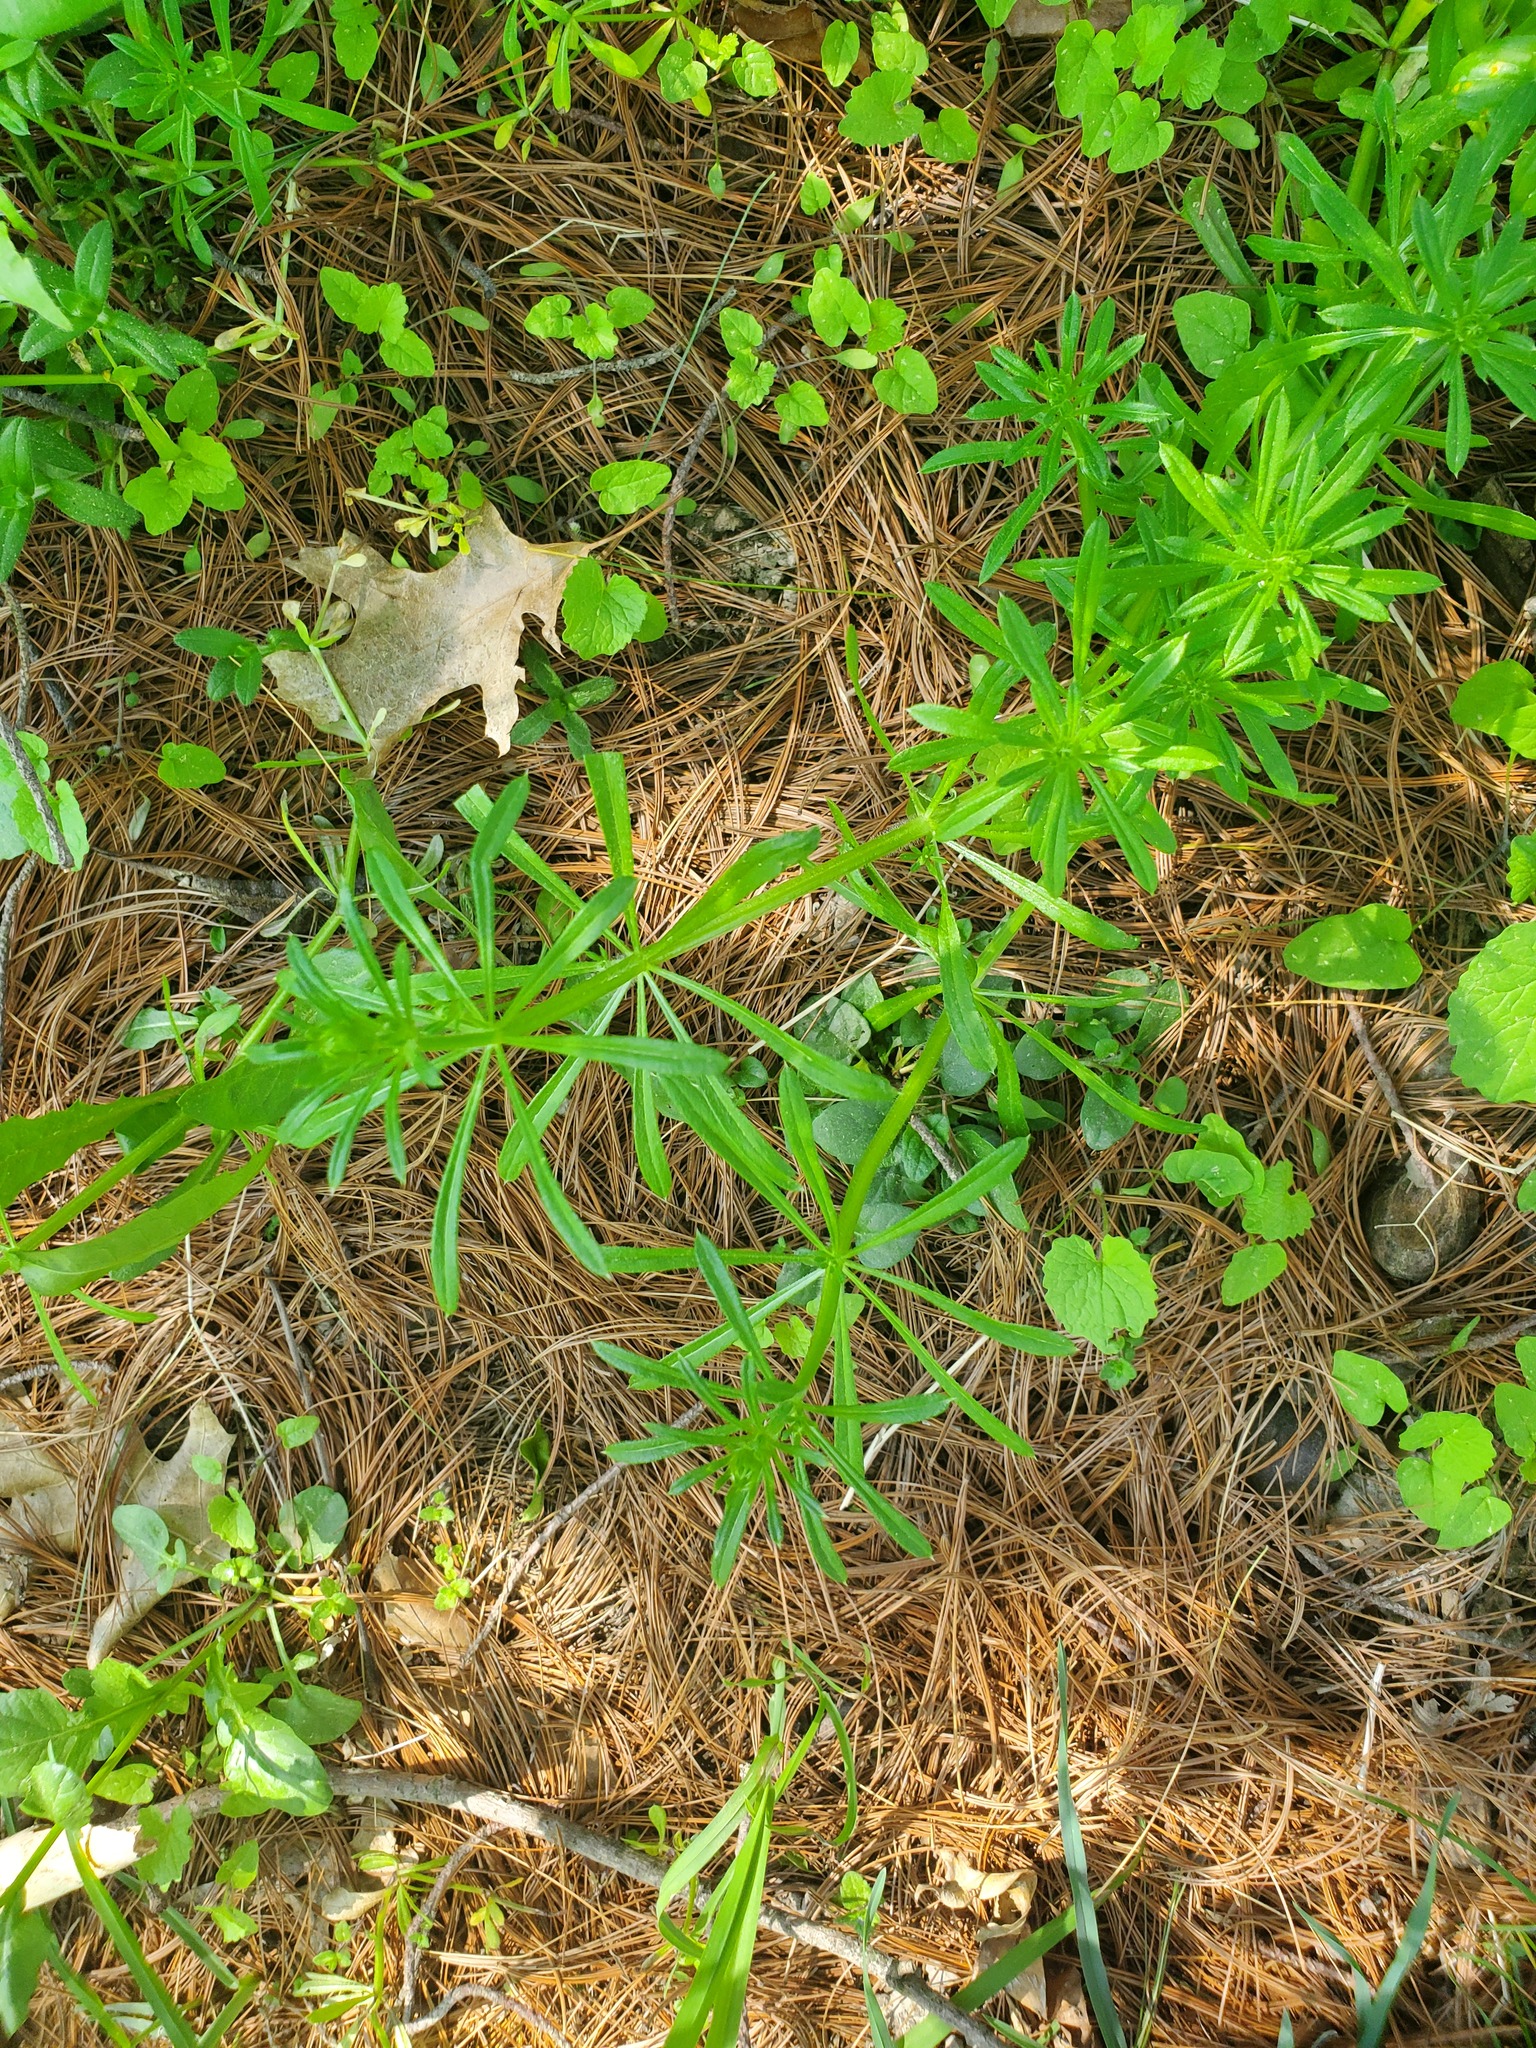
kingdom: Plantae
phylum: Tracheophyta
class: Magnoliopsida
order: Gentianales
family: Rubiaceae
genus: Galium
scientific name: Galium aparine
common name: Cleavers
